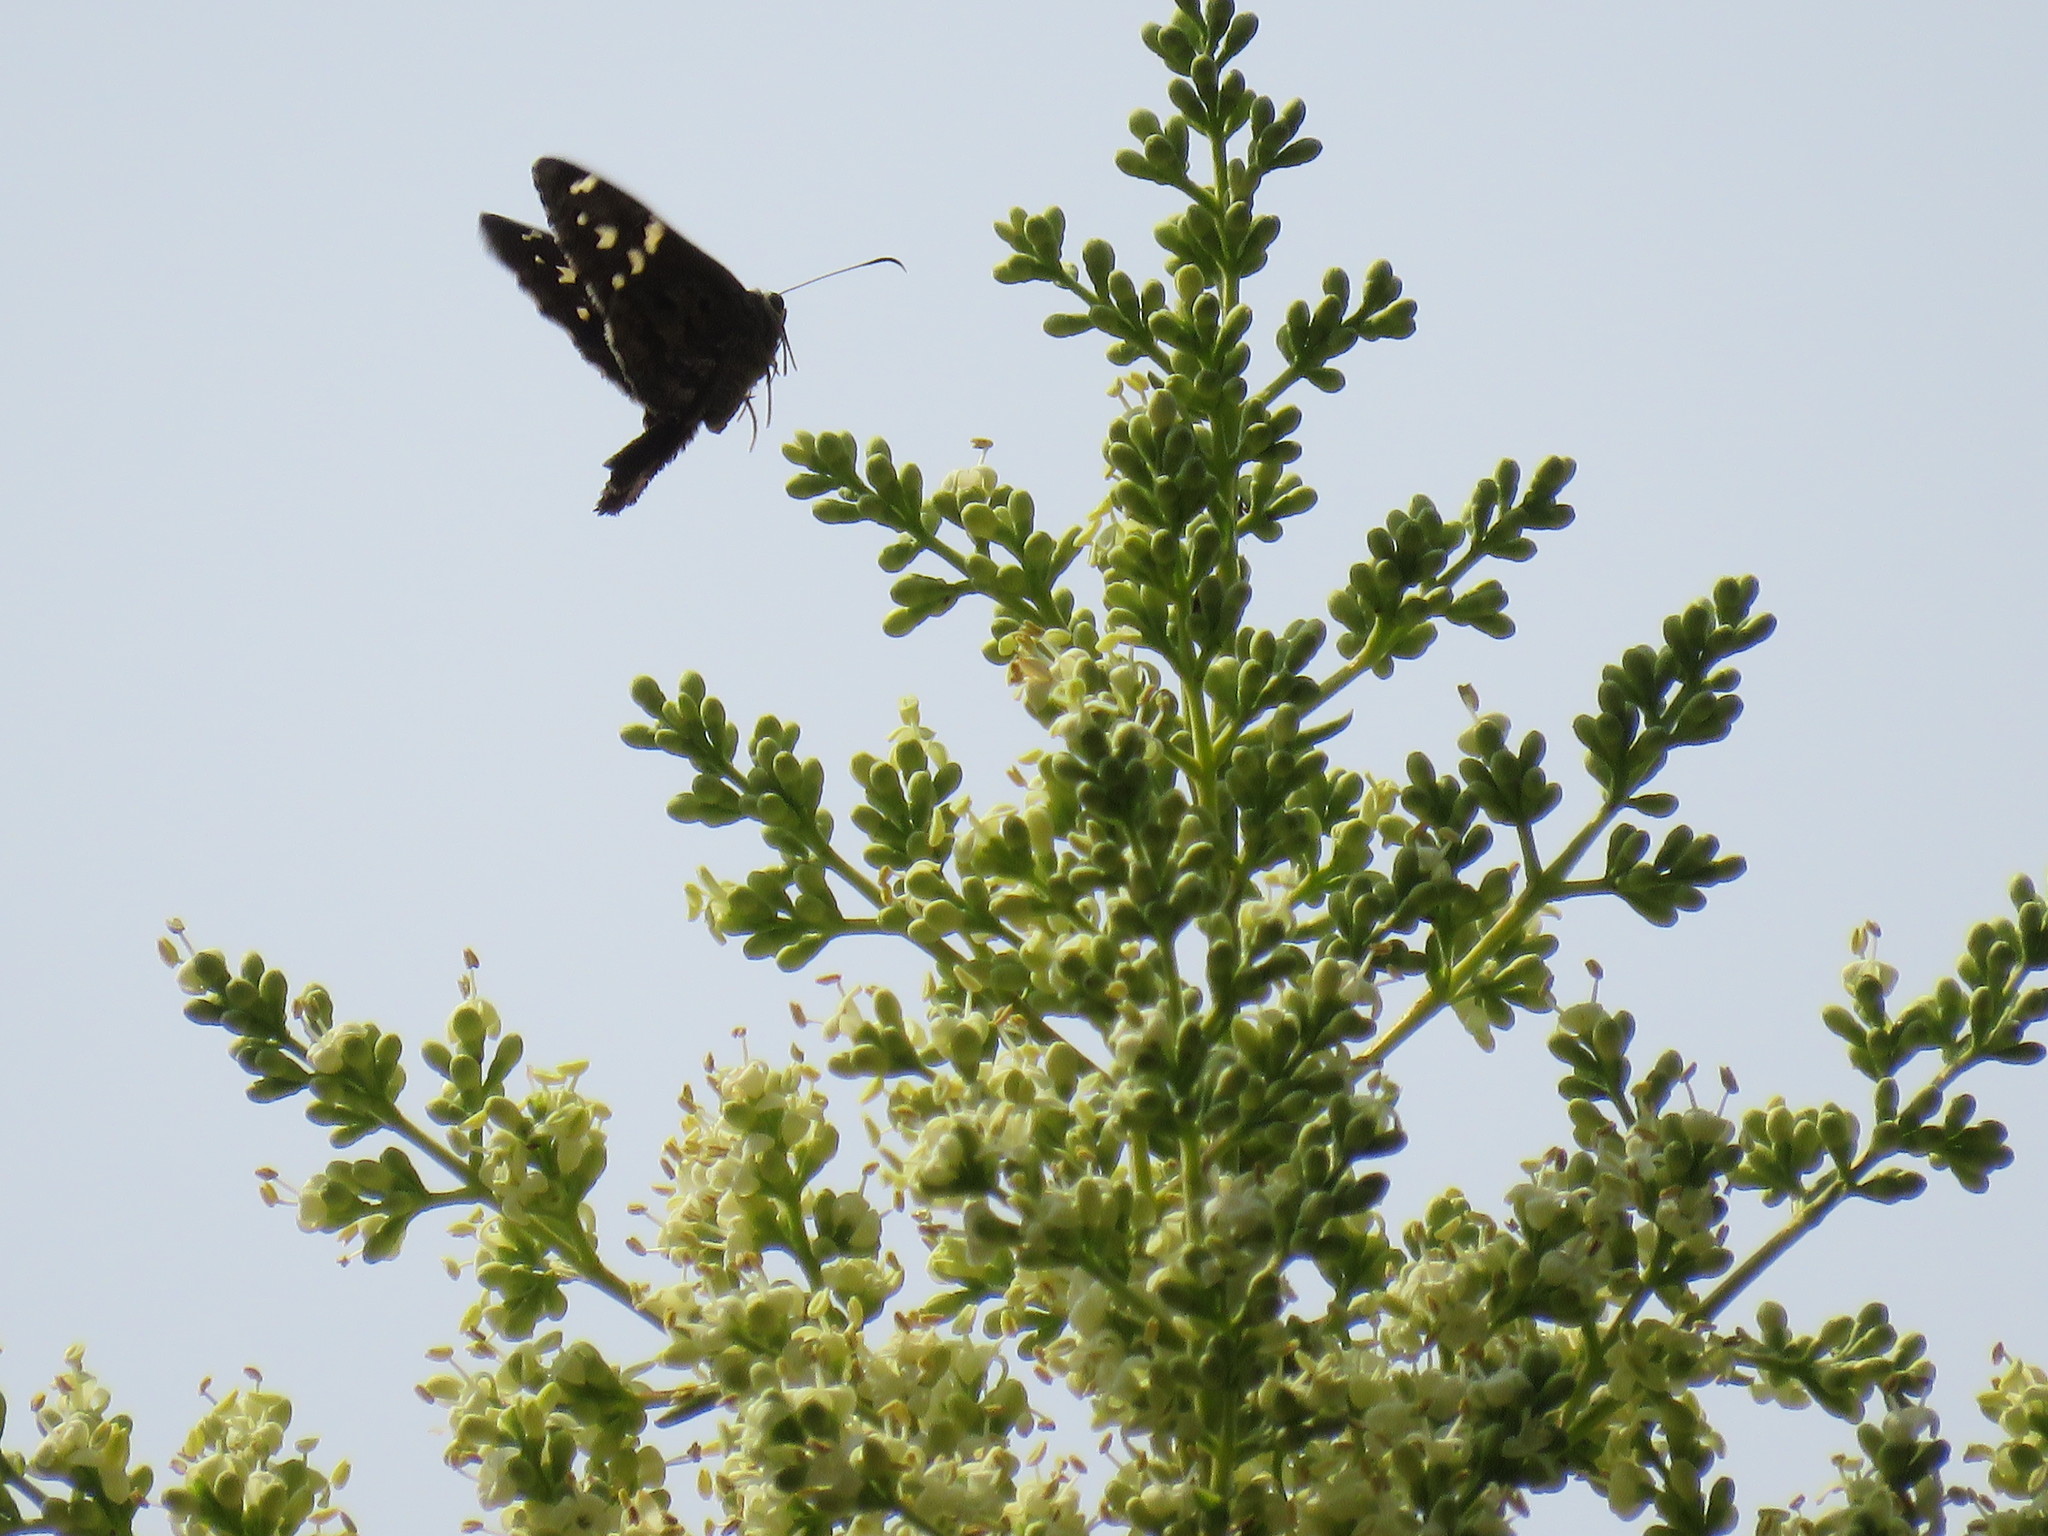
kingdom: Animalia
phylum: Arthropoda
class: Insecta
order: Lepidoptera
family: Hesperiidae
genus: Urbanus
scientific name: Urbanus elmina
